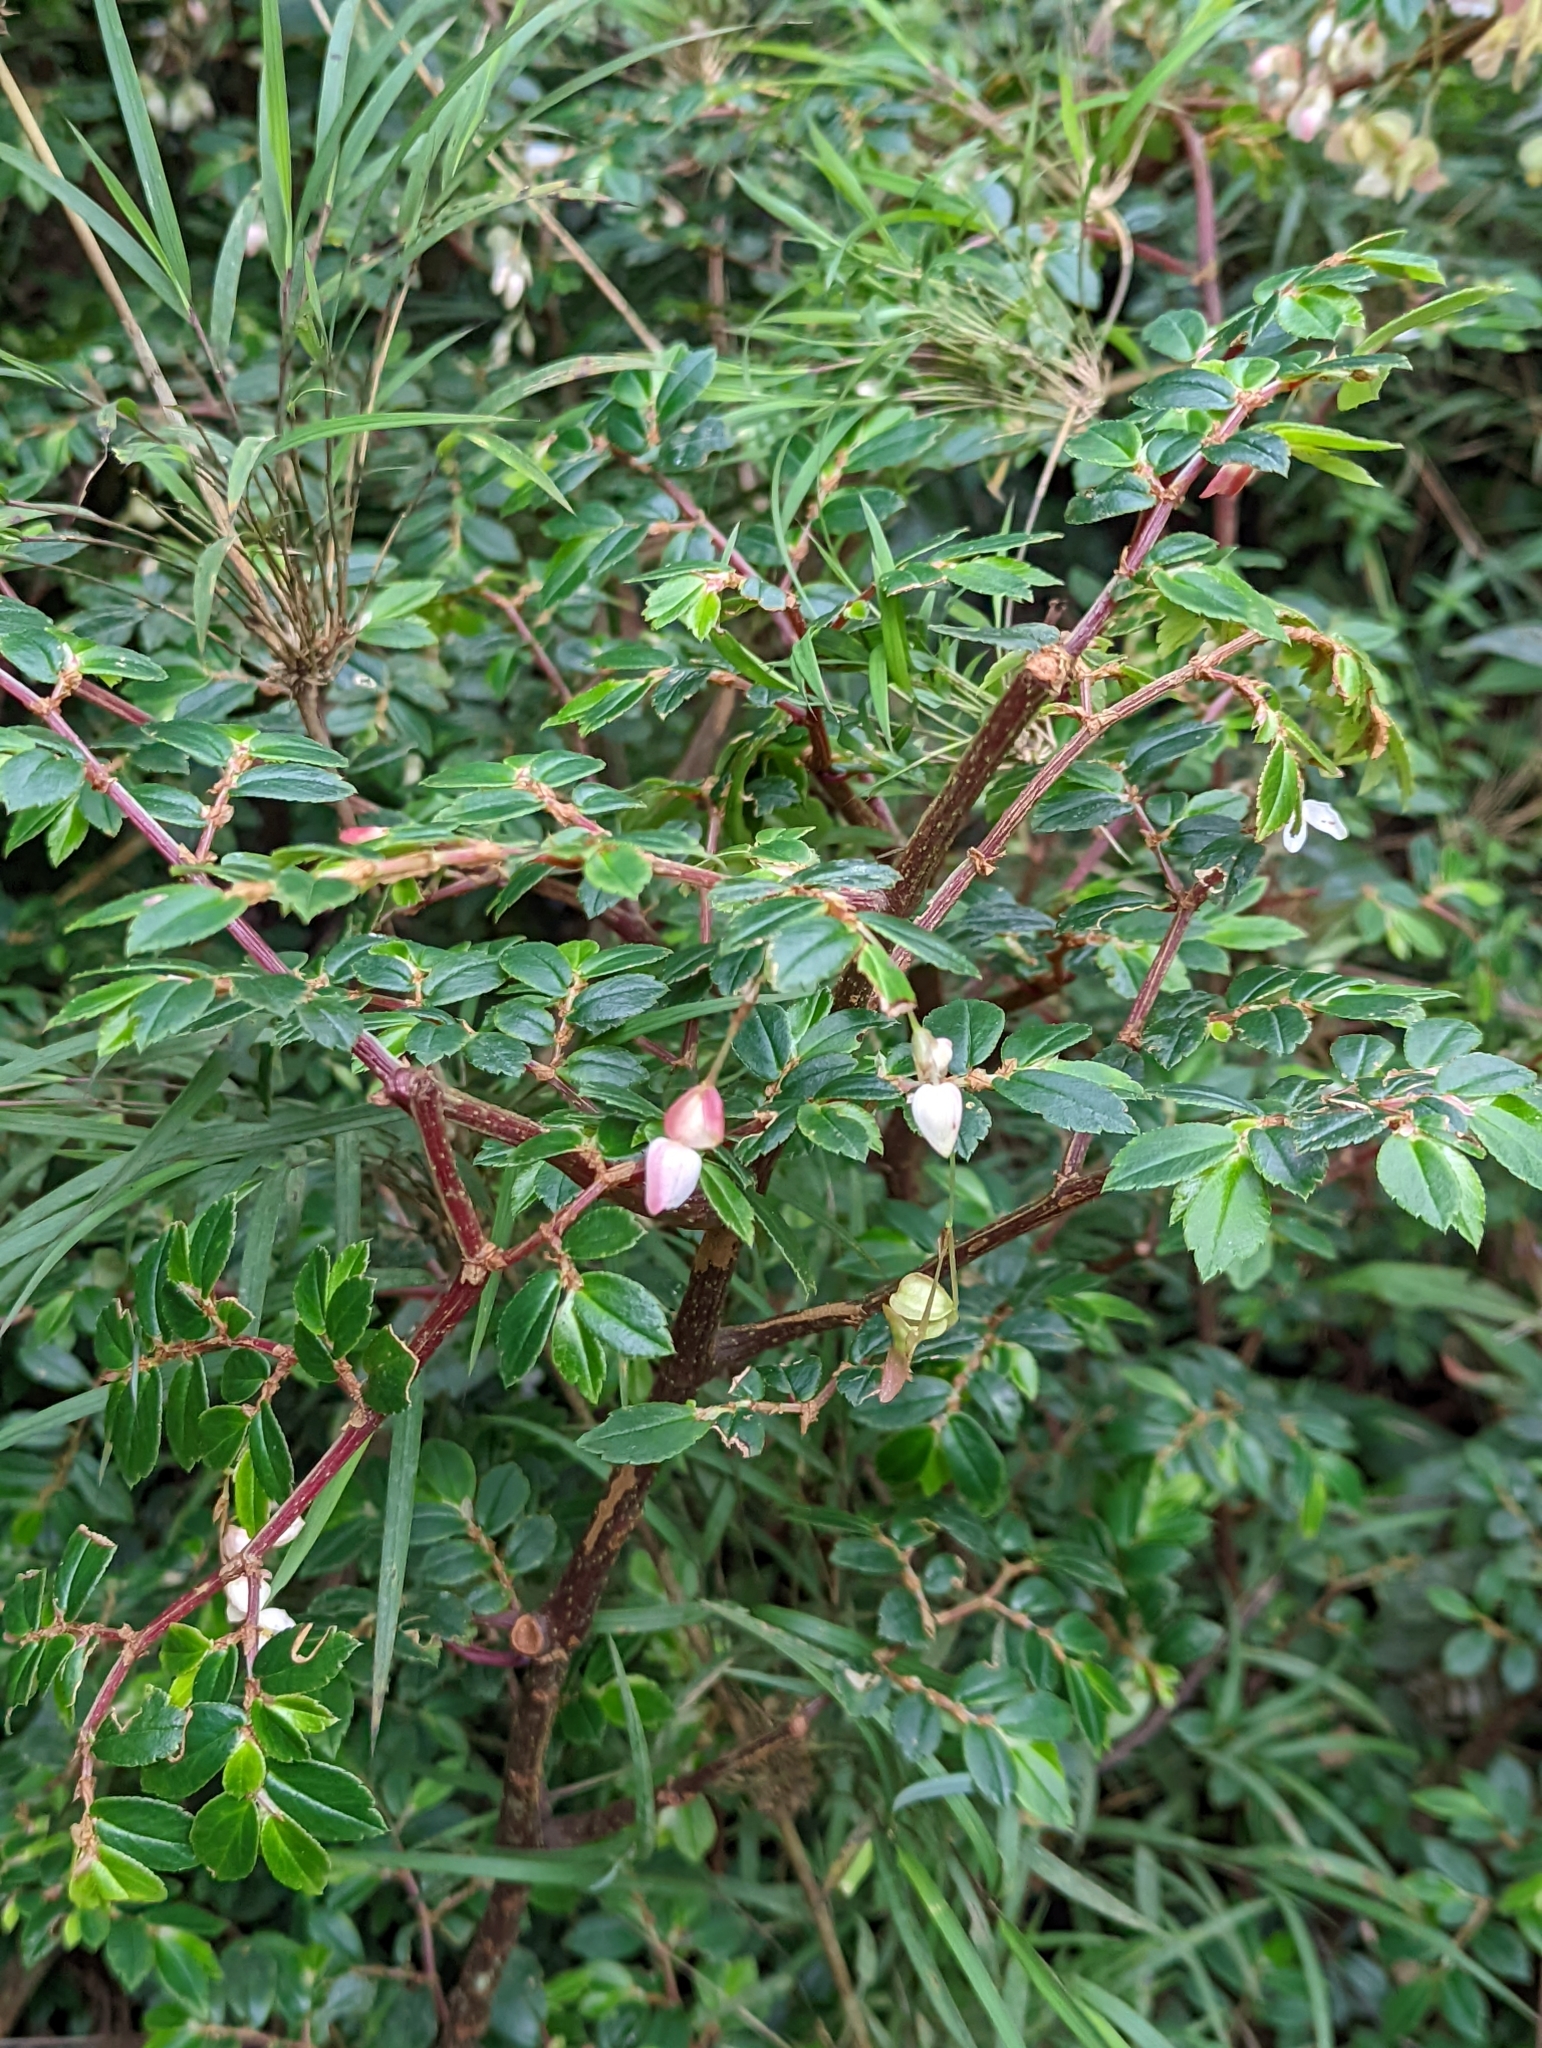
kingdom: Plantae
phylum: Tracheophyta
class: Magnoliopsida
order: Cucurbitales
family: Begoniaceae
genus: Begonia
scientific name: Begonia foliosa
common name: Fern begonia
